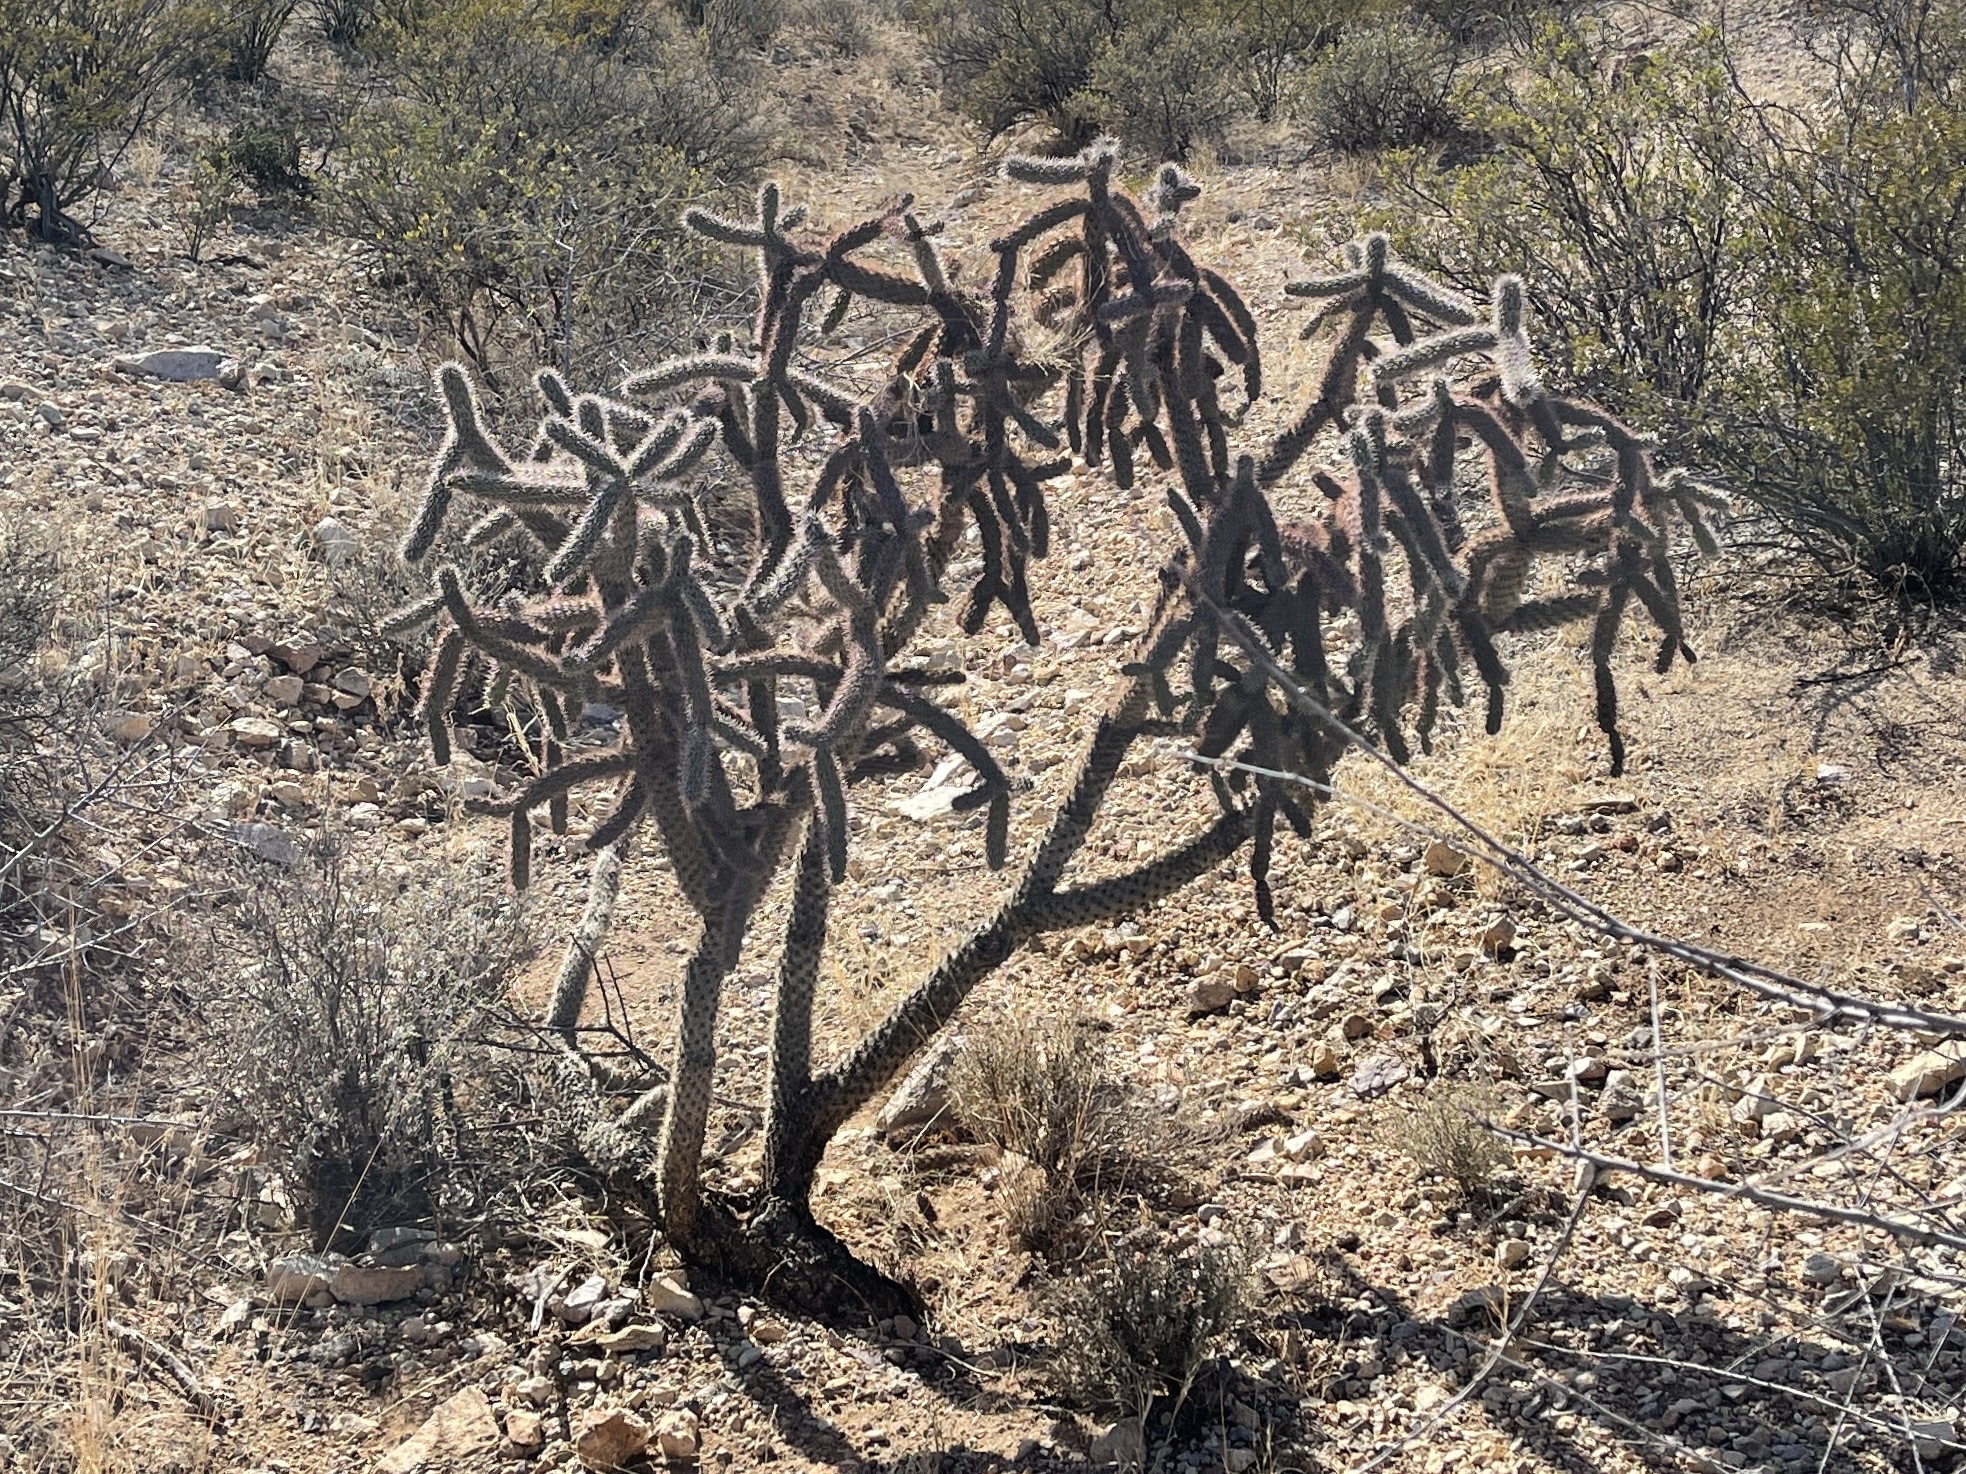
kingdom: Plantae
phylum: Tracheophyta
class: Magnoliopsida
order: Caryophyllales
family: Cactaceae
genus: Cylindropuntia
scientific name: Cylindropuntia imbricata
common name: Candelabrum cactus
